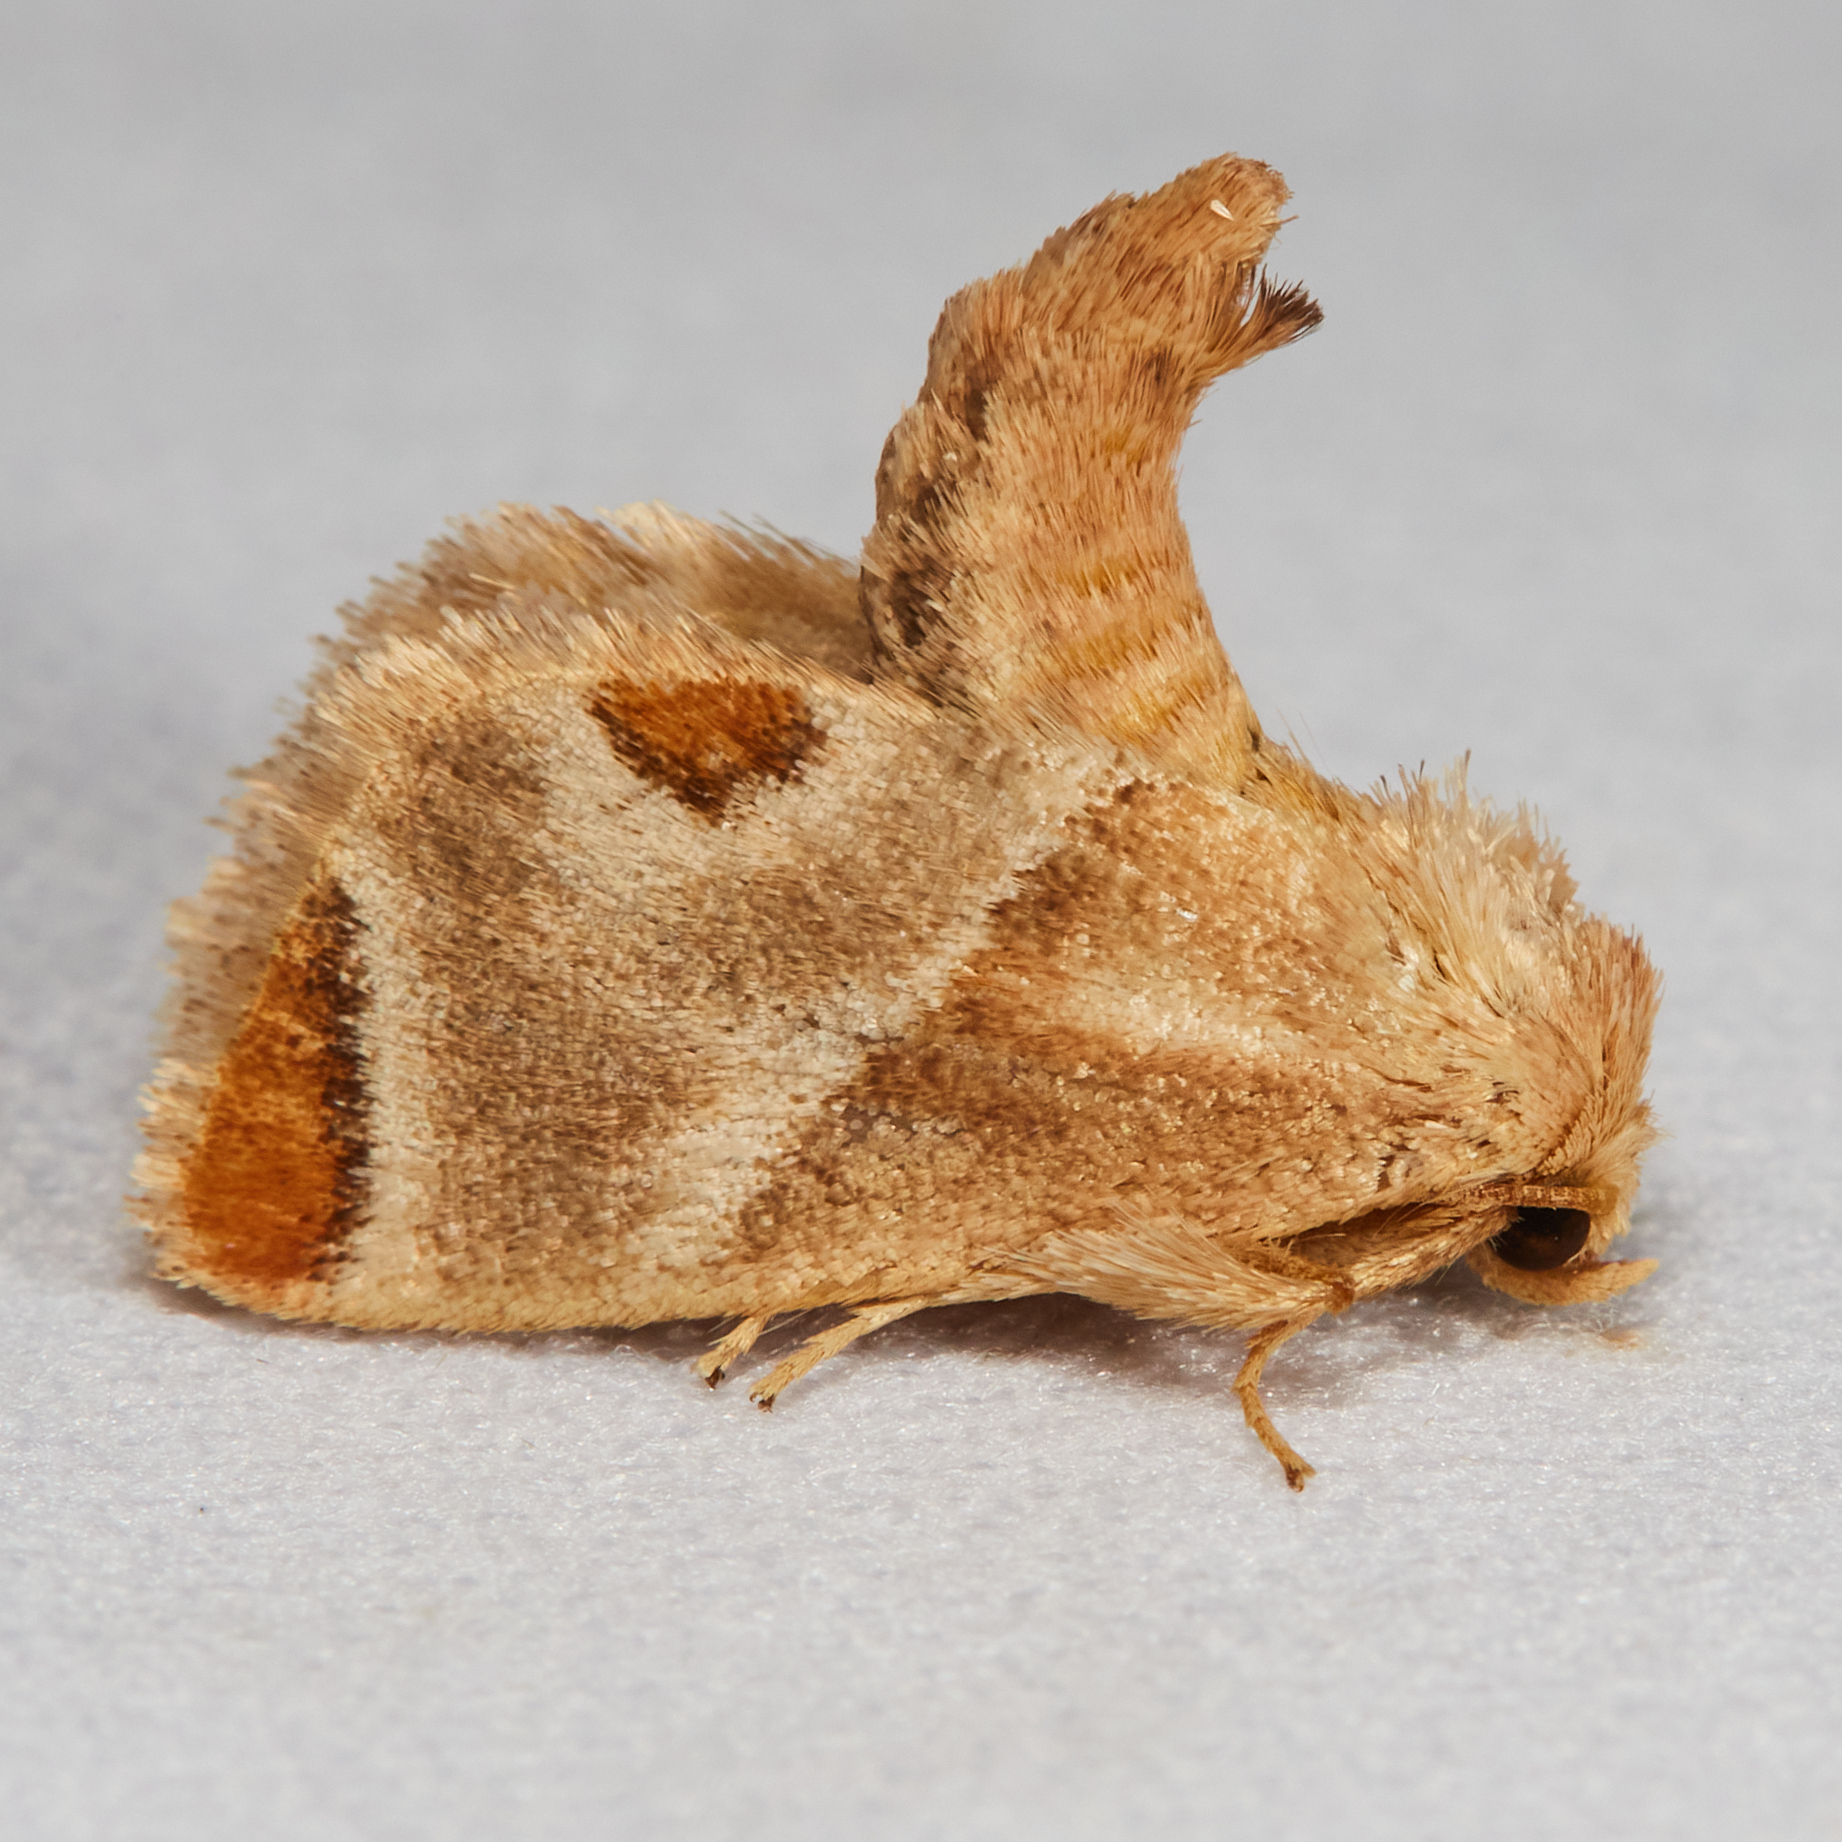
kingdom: Animalia
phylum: Arthropoda
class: Insecta
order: Lepidoptera
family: Limacodidae
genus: Apoda
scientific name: Apoda biguttata
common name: Shagreened slug moth
